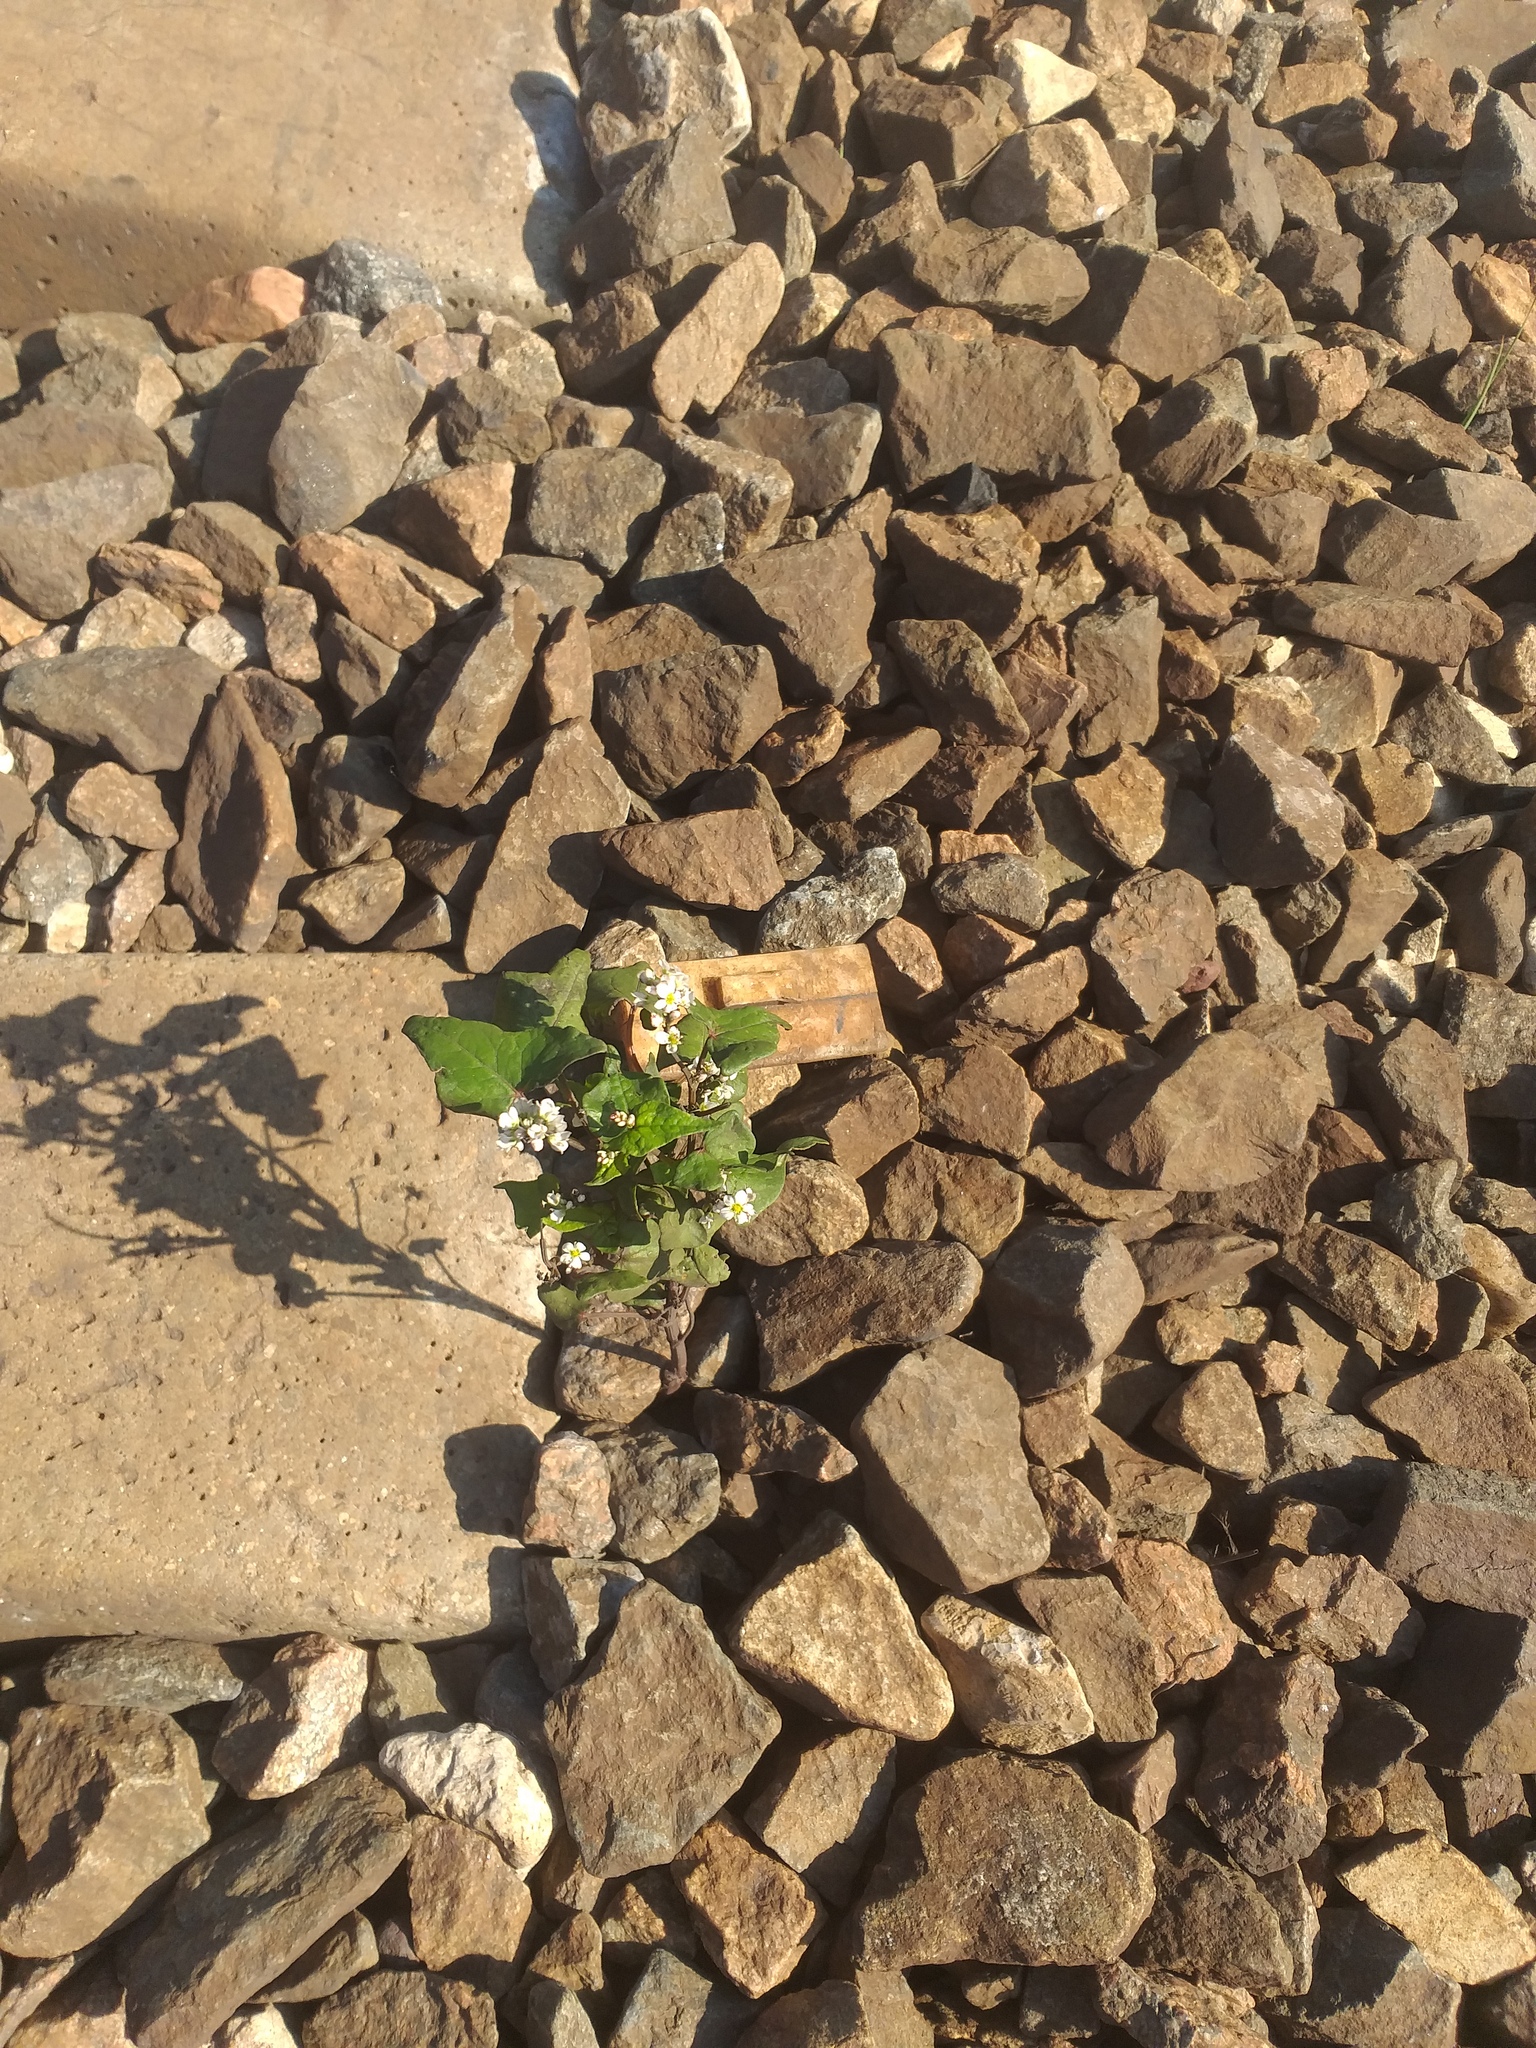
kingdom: Plantae
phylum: Tracheophyta
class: Magnoliopsida
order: Caryophyllales
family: Polygonaceae
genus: Fagopyrum
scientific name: Fagopyrum esculentum
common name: Buckwheat
